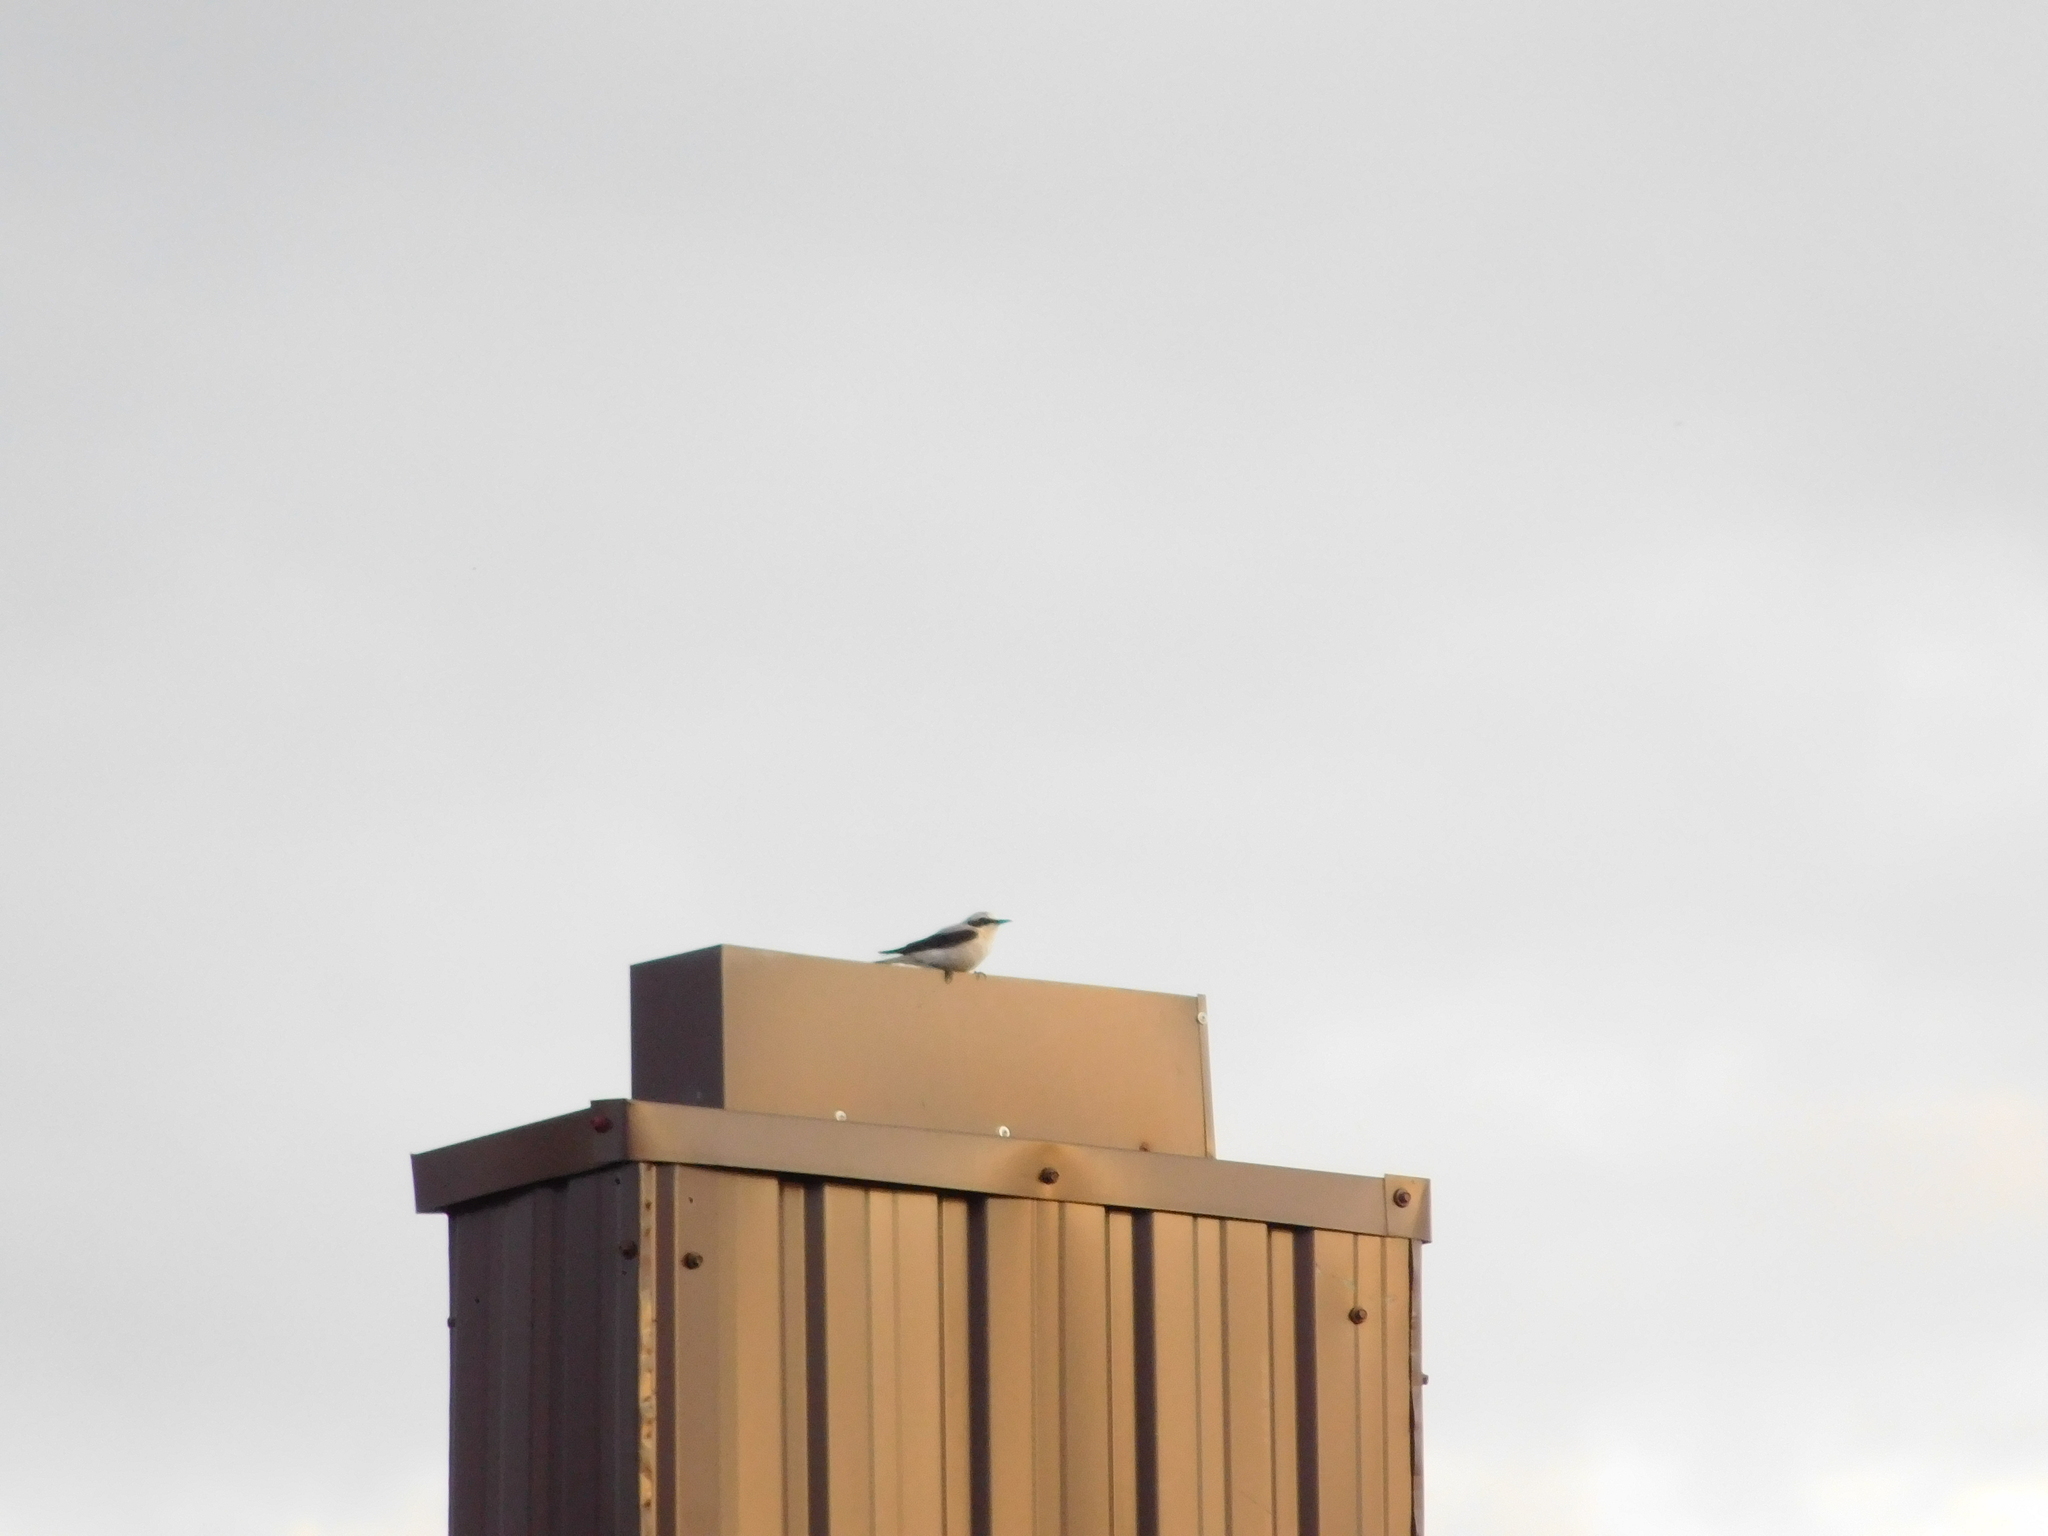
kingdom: Animalia
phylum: Chordata
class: Aves
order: Passeriformes
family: Muscicapidae
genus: Oenanthe
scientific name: Oenanthe oenanthe
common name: Northern wheatear
